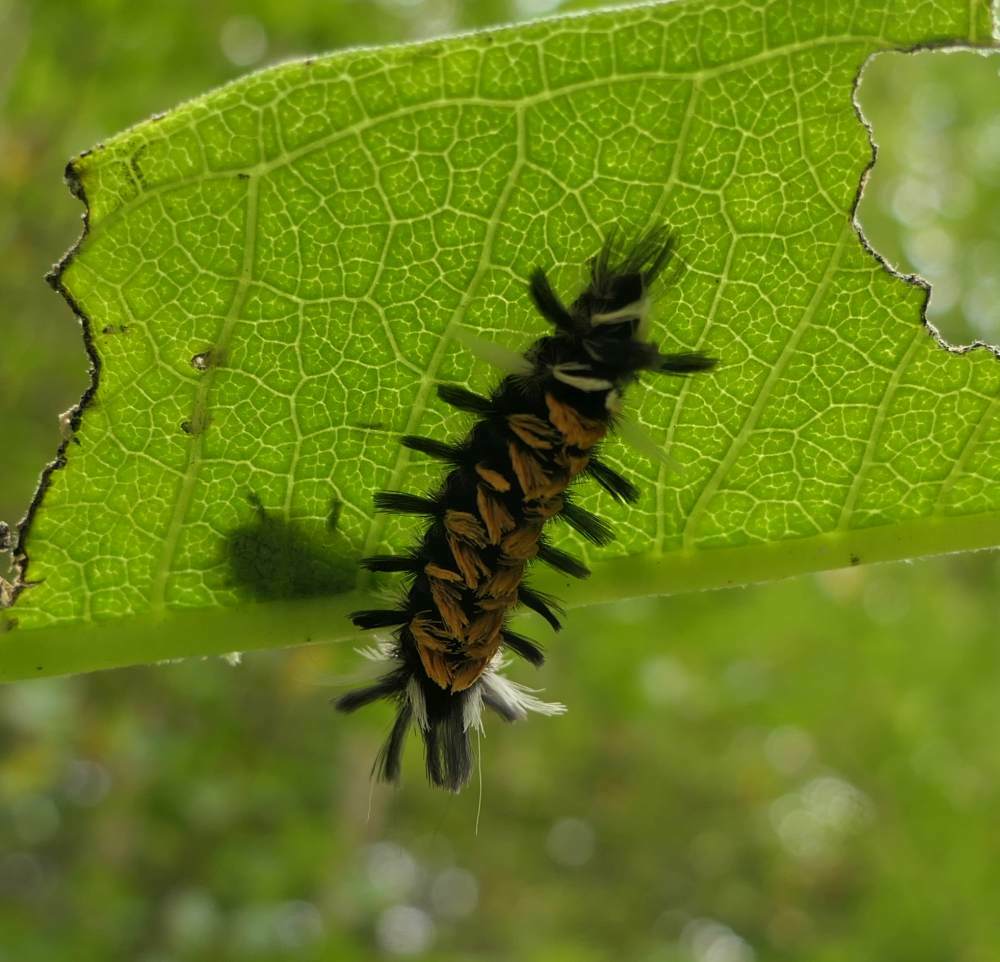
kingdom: Animalia
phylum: Arthropoda
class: Insecta
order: Lepidoptera
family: Erebidae
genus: Euchaetes
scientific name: Euchaetes egle
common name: Milkweed tussock moth
